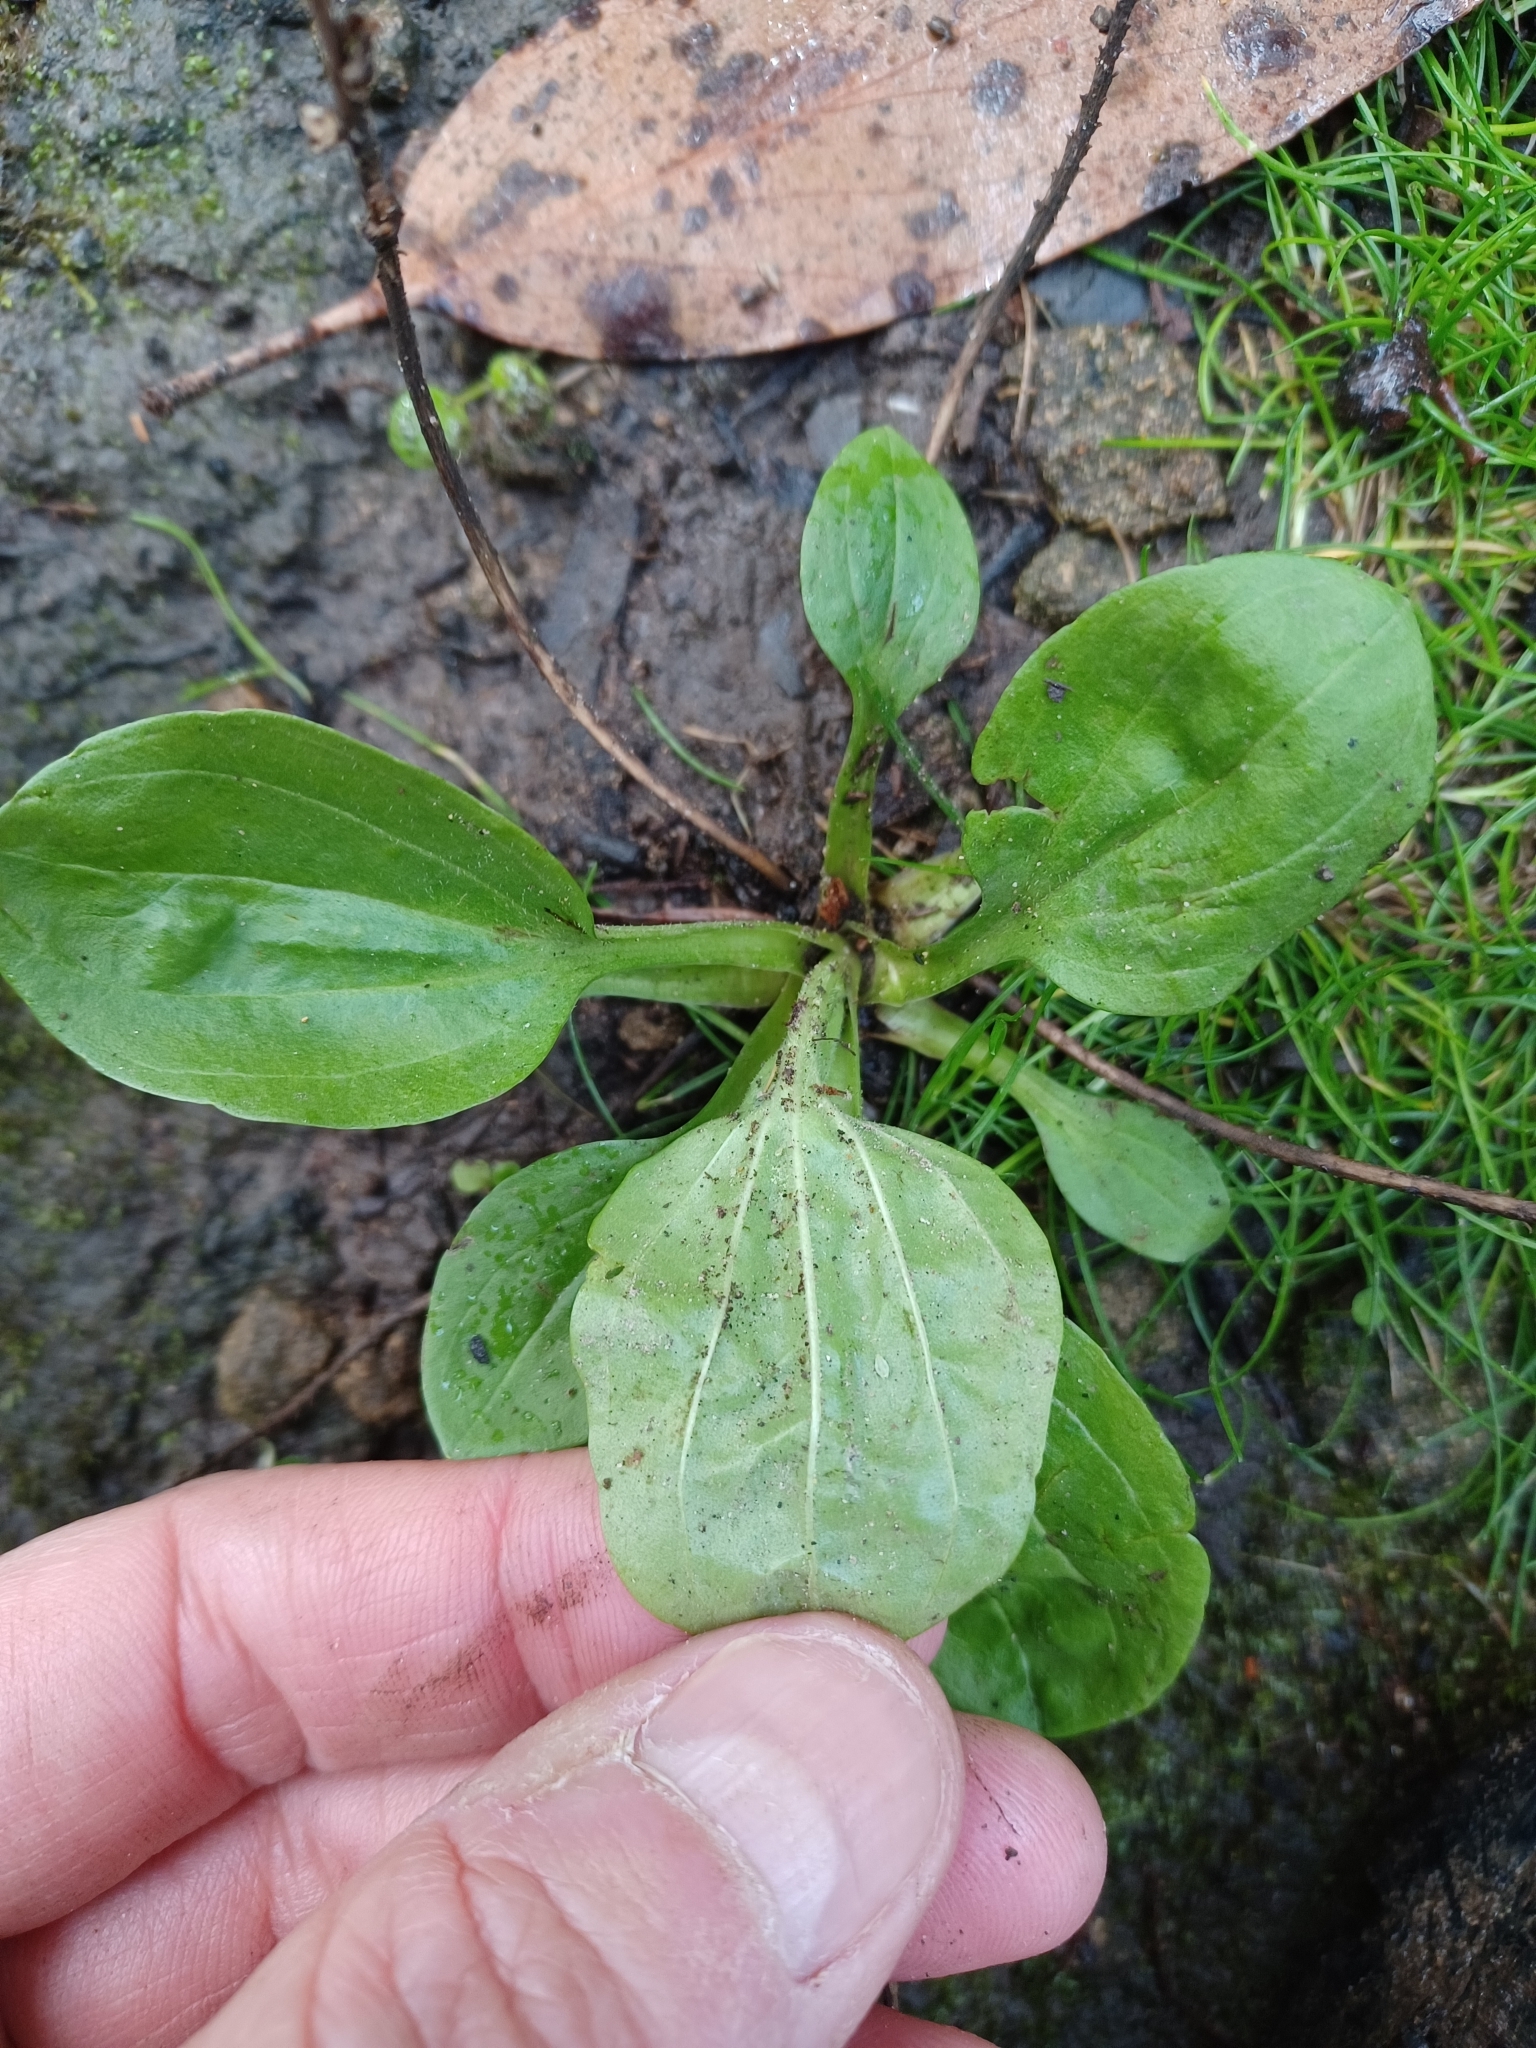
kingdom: Plantae
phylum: Tracheophyta
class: Magnoliopsida
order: Lamiales
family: Plantaginaceae
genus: Plantago
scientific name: Plantago major
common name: Common plantain
